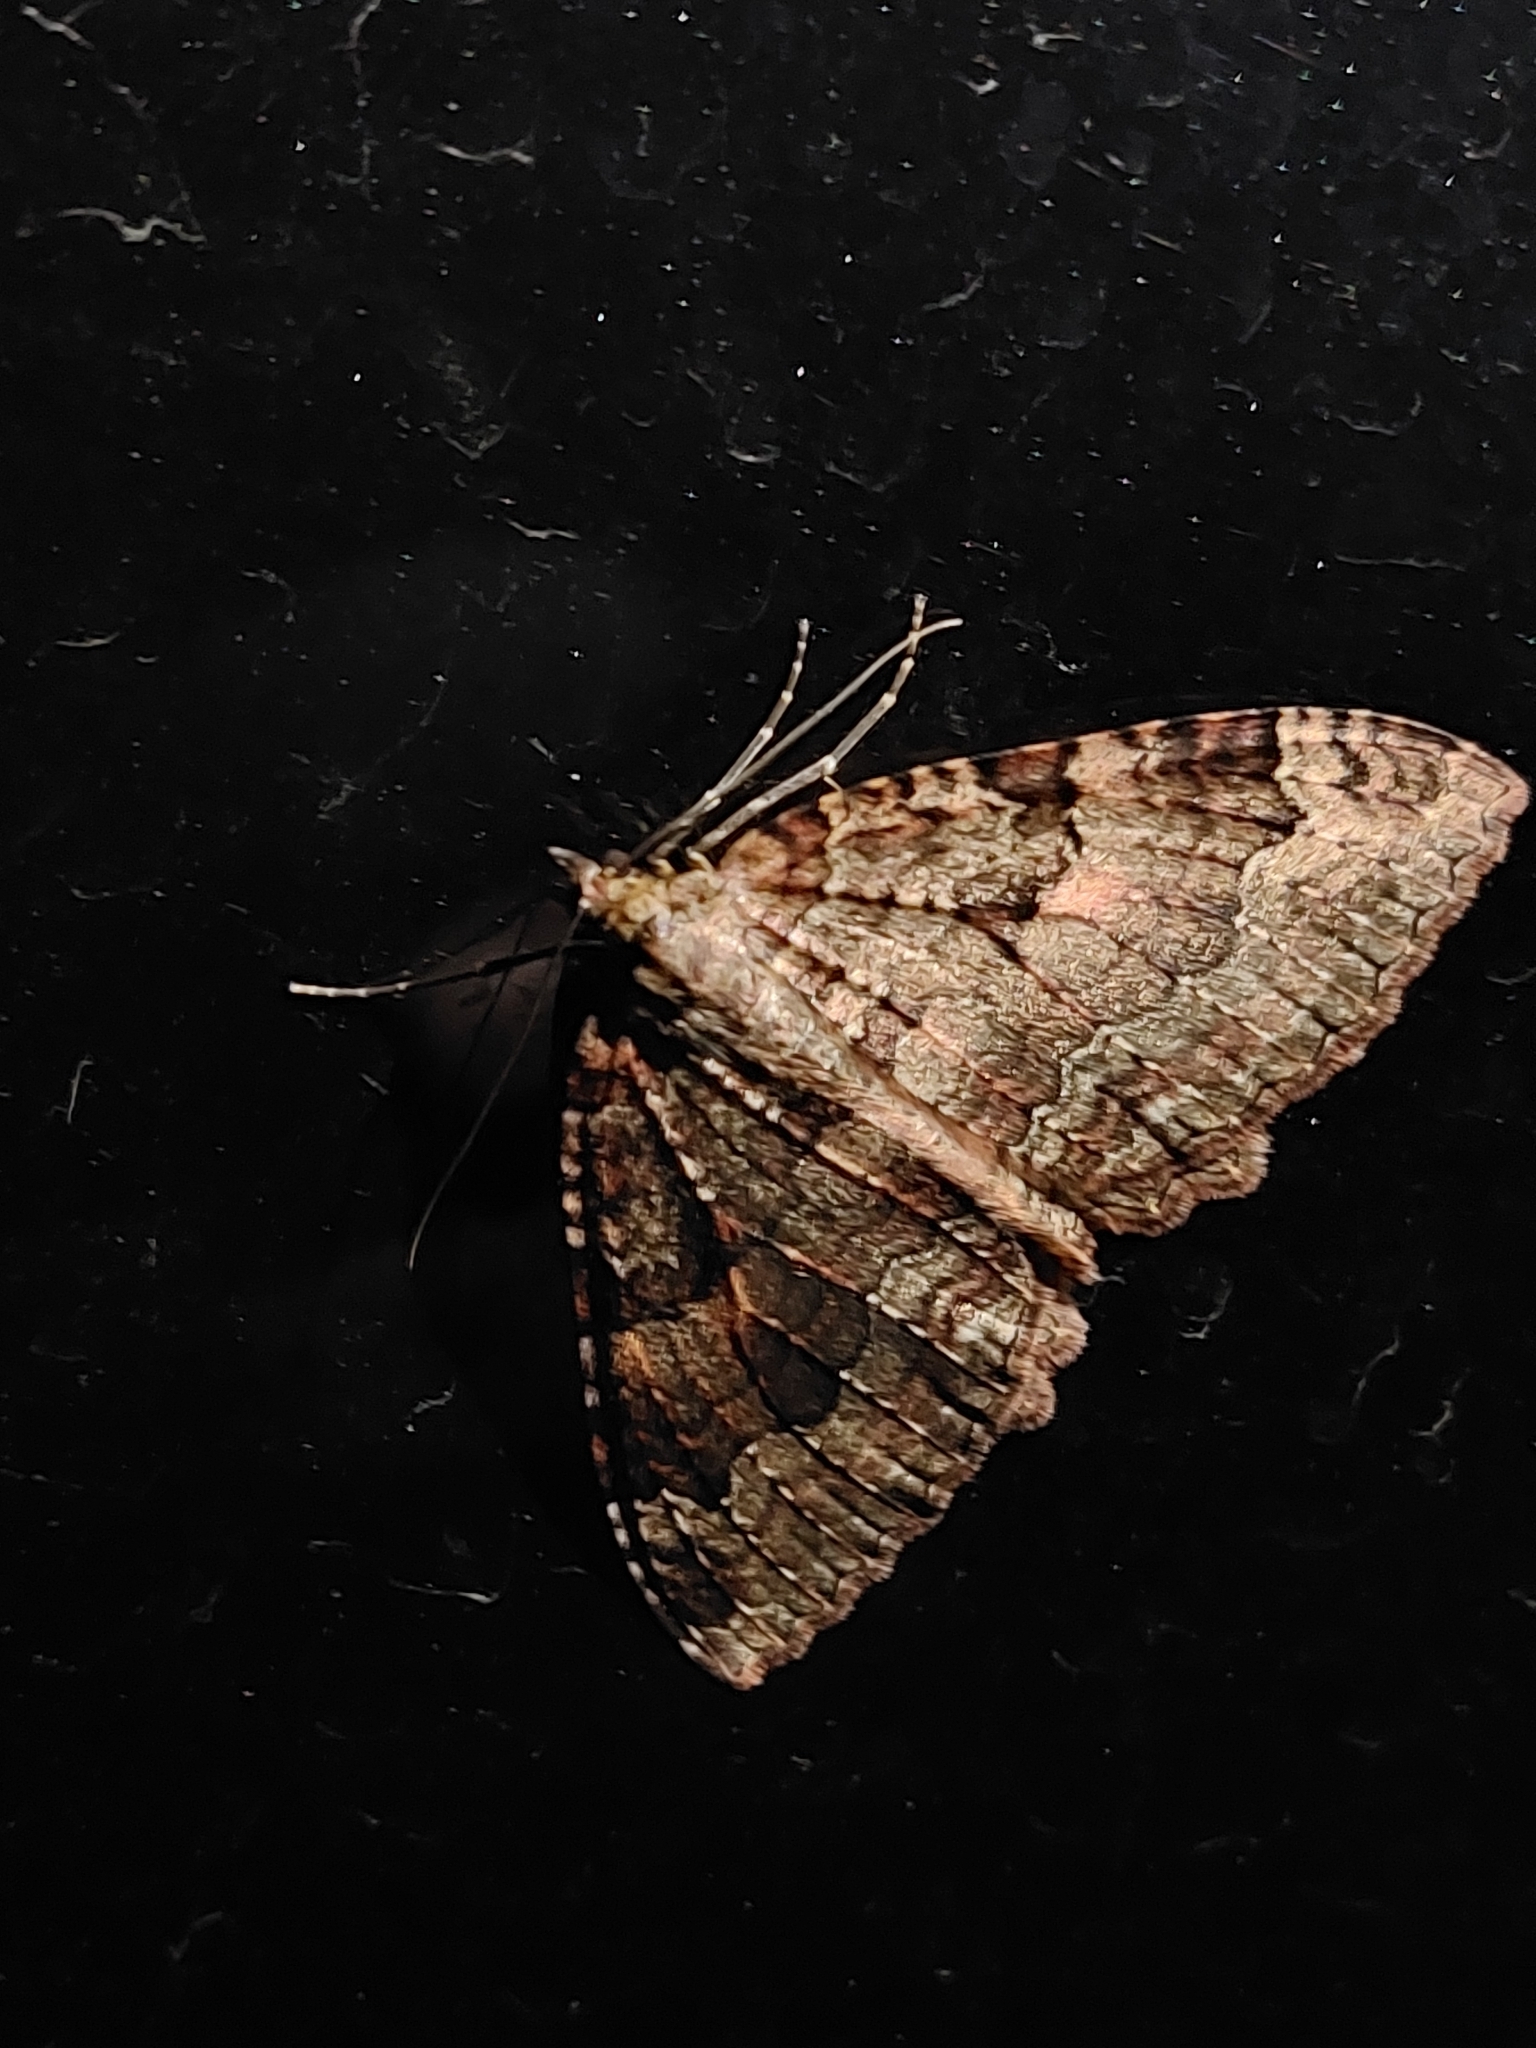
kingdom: Animalia
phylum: Arthropoda
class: Insecta
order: Lepidoptera
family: Geometridae
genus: Triphosa
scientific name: Triphosa dubitata
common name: Tissue
